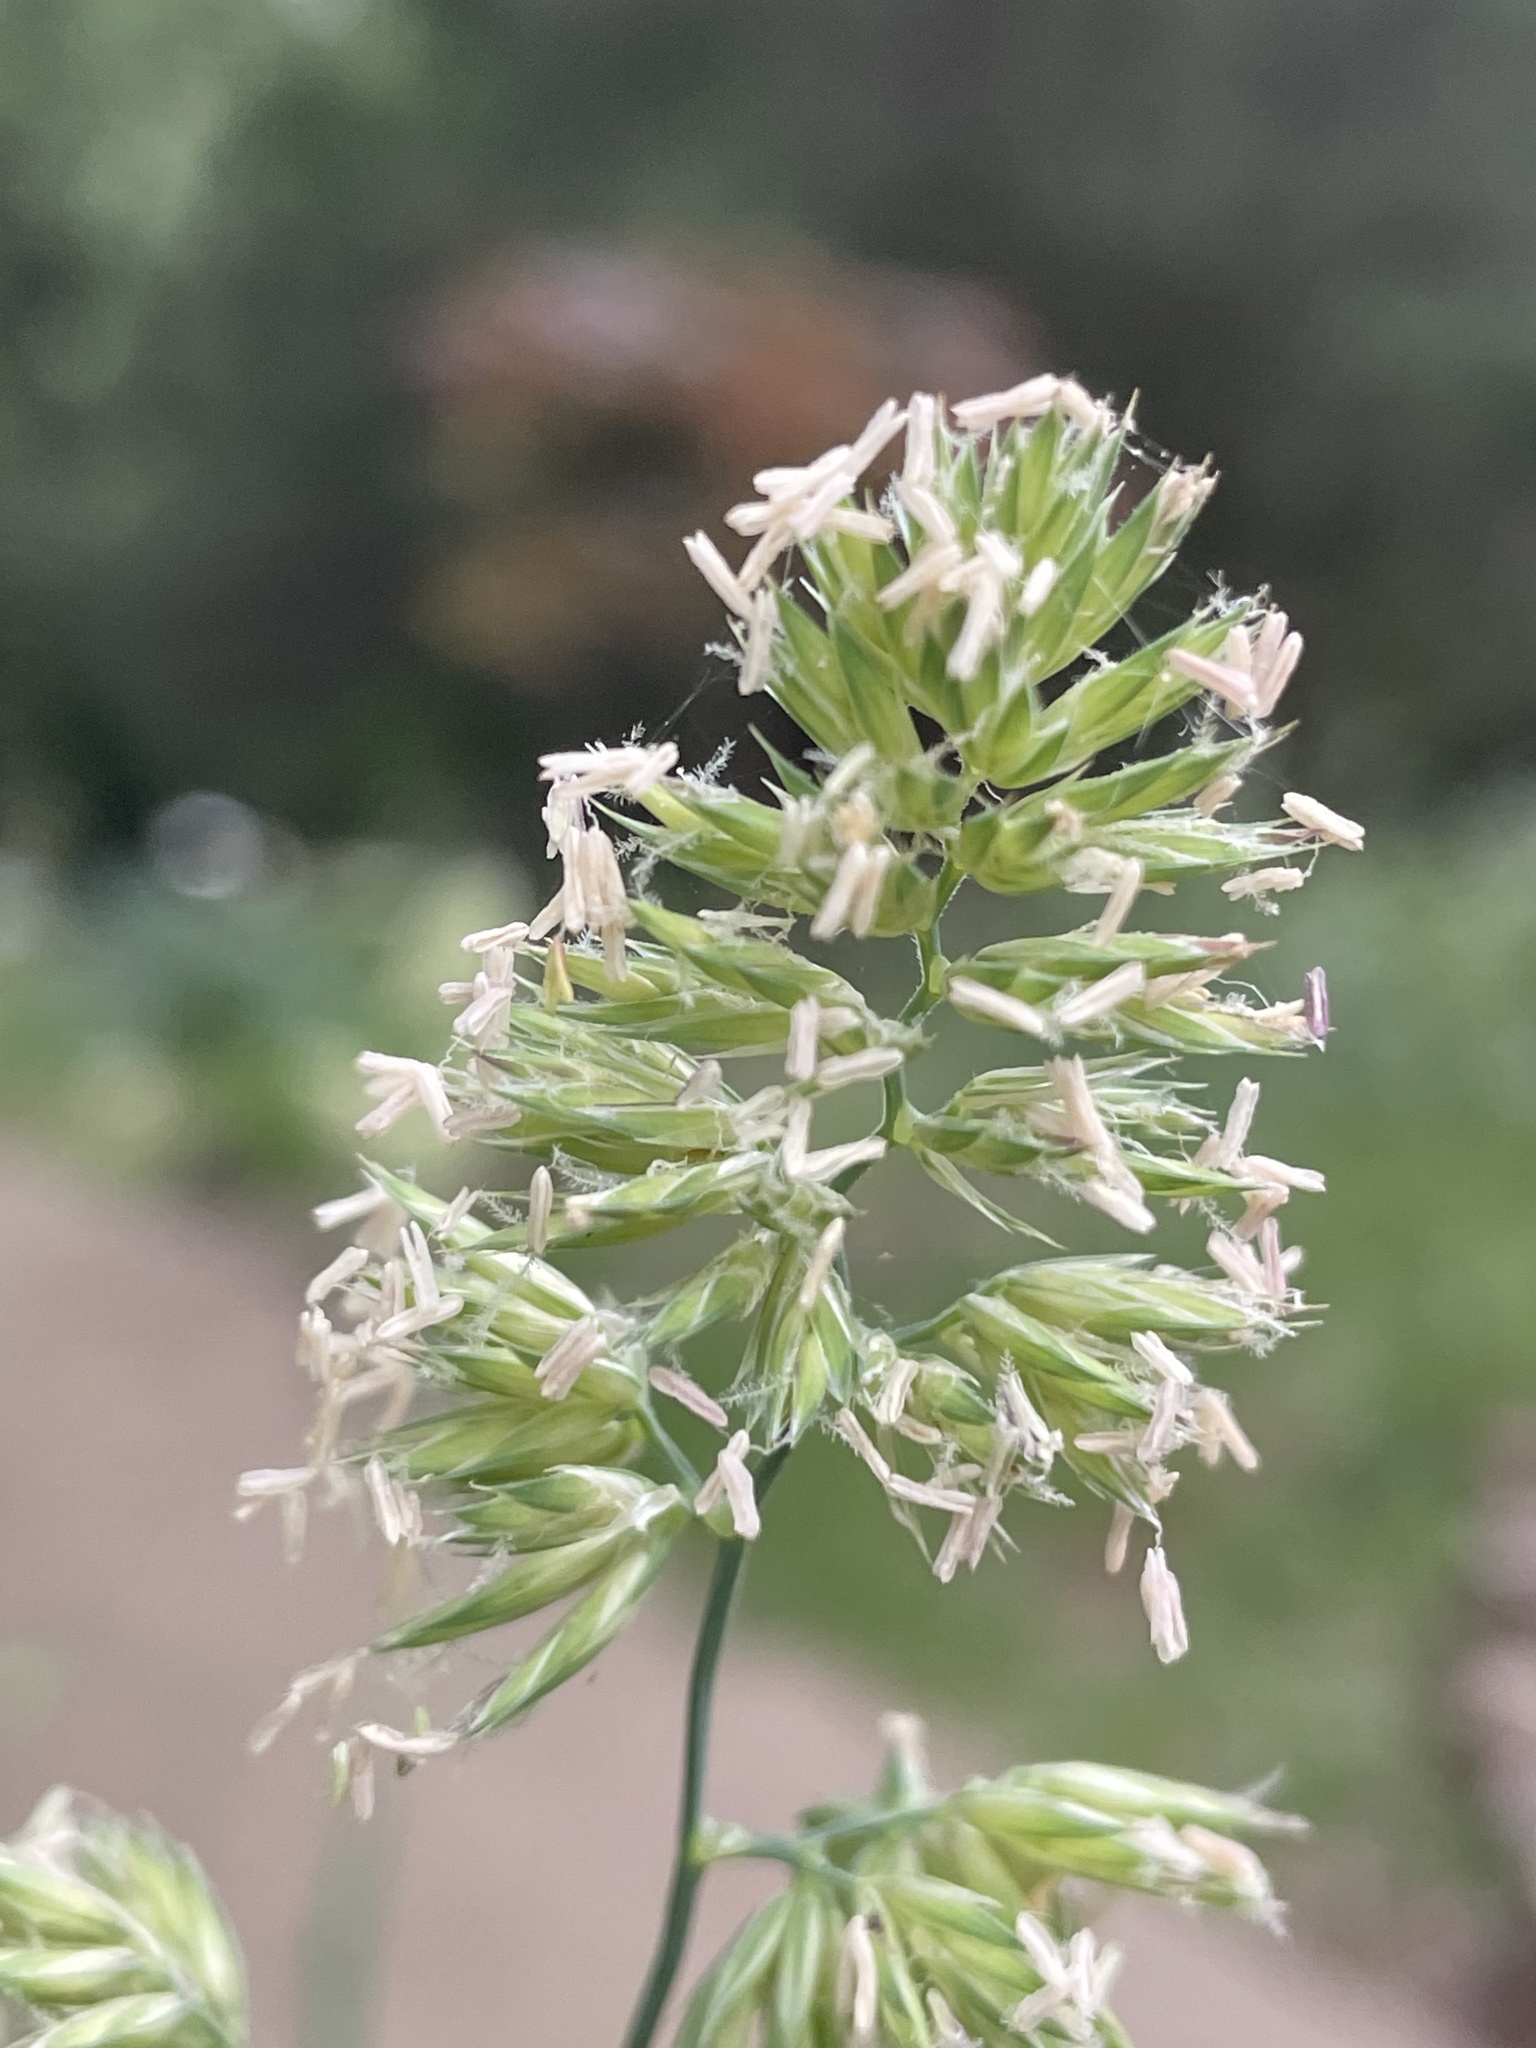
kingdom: Plantae
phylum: Tracheophyta
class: Liliopsida
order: Poales
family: Poaceae
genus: Dactylis
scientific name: Dactylis glomerata
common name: Orchardgrass
